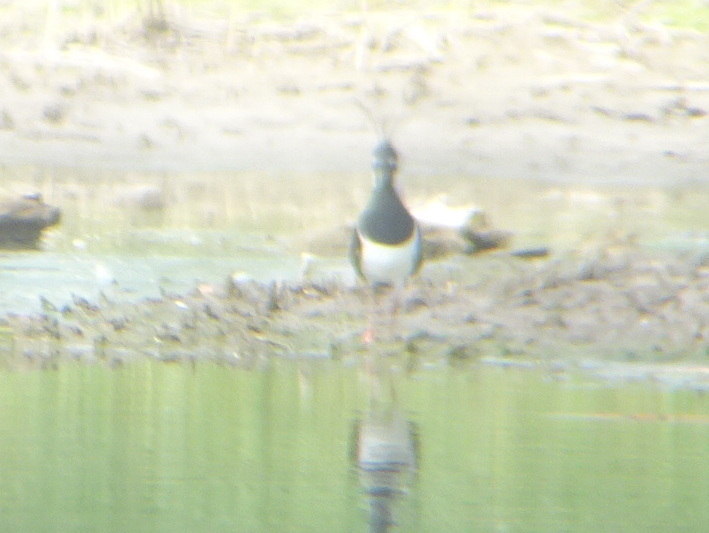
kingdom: Animalia
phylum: Chordata
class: Aves
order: Charadriiformes
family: Charadriidae
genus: Vanellus
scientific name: Vanellus vanellus
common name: Northern lapwing
